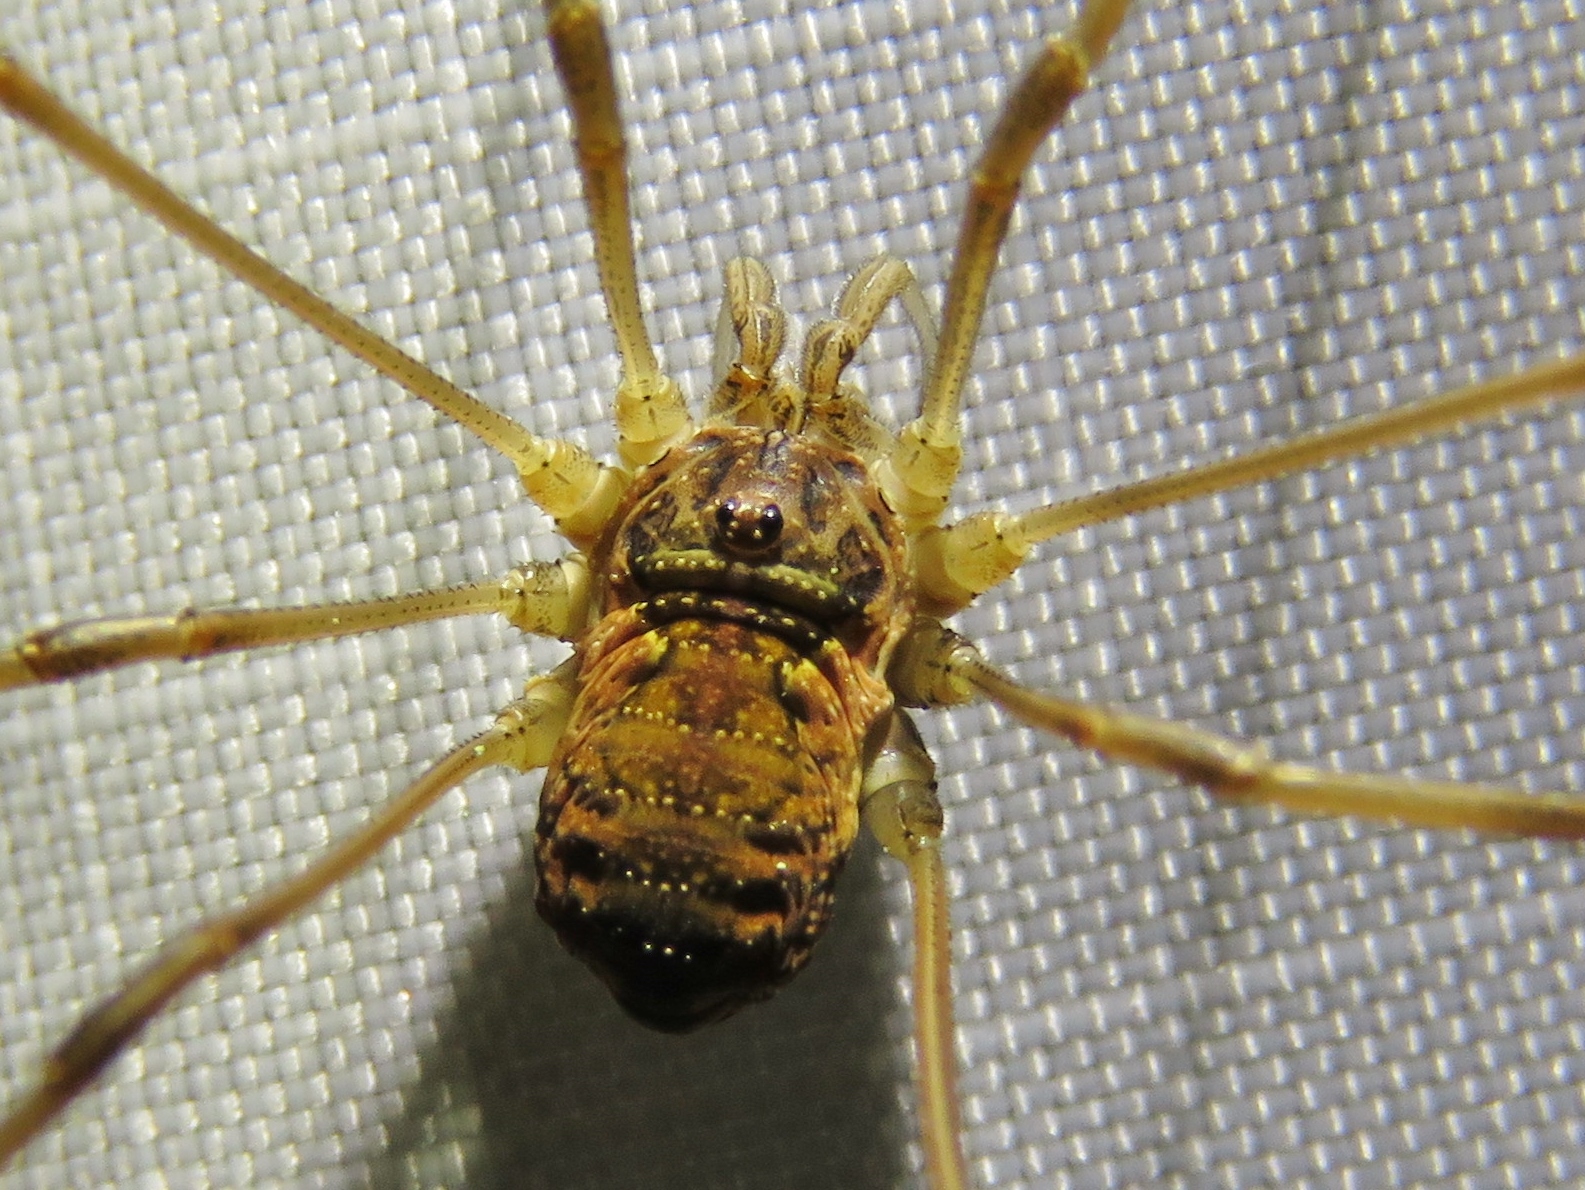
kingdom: Animalia
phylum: Arthropoda
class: Arachnida
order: Opiliones
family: Phalangiidae
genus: Mitopus
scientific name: Mitopus morio
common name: Saddleback harvestman
